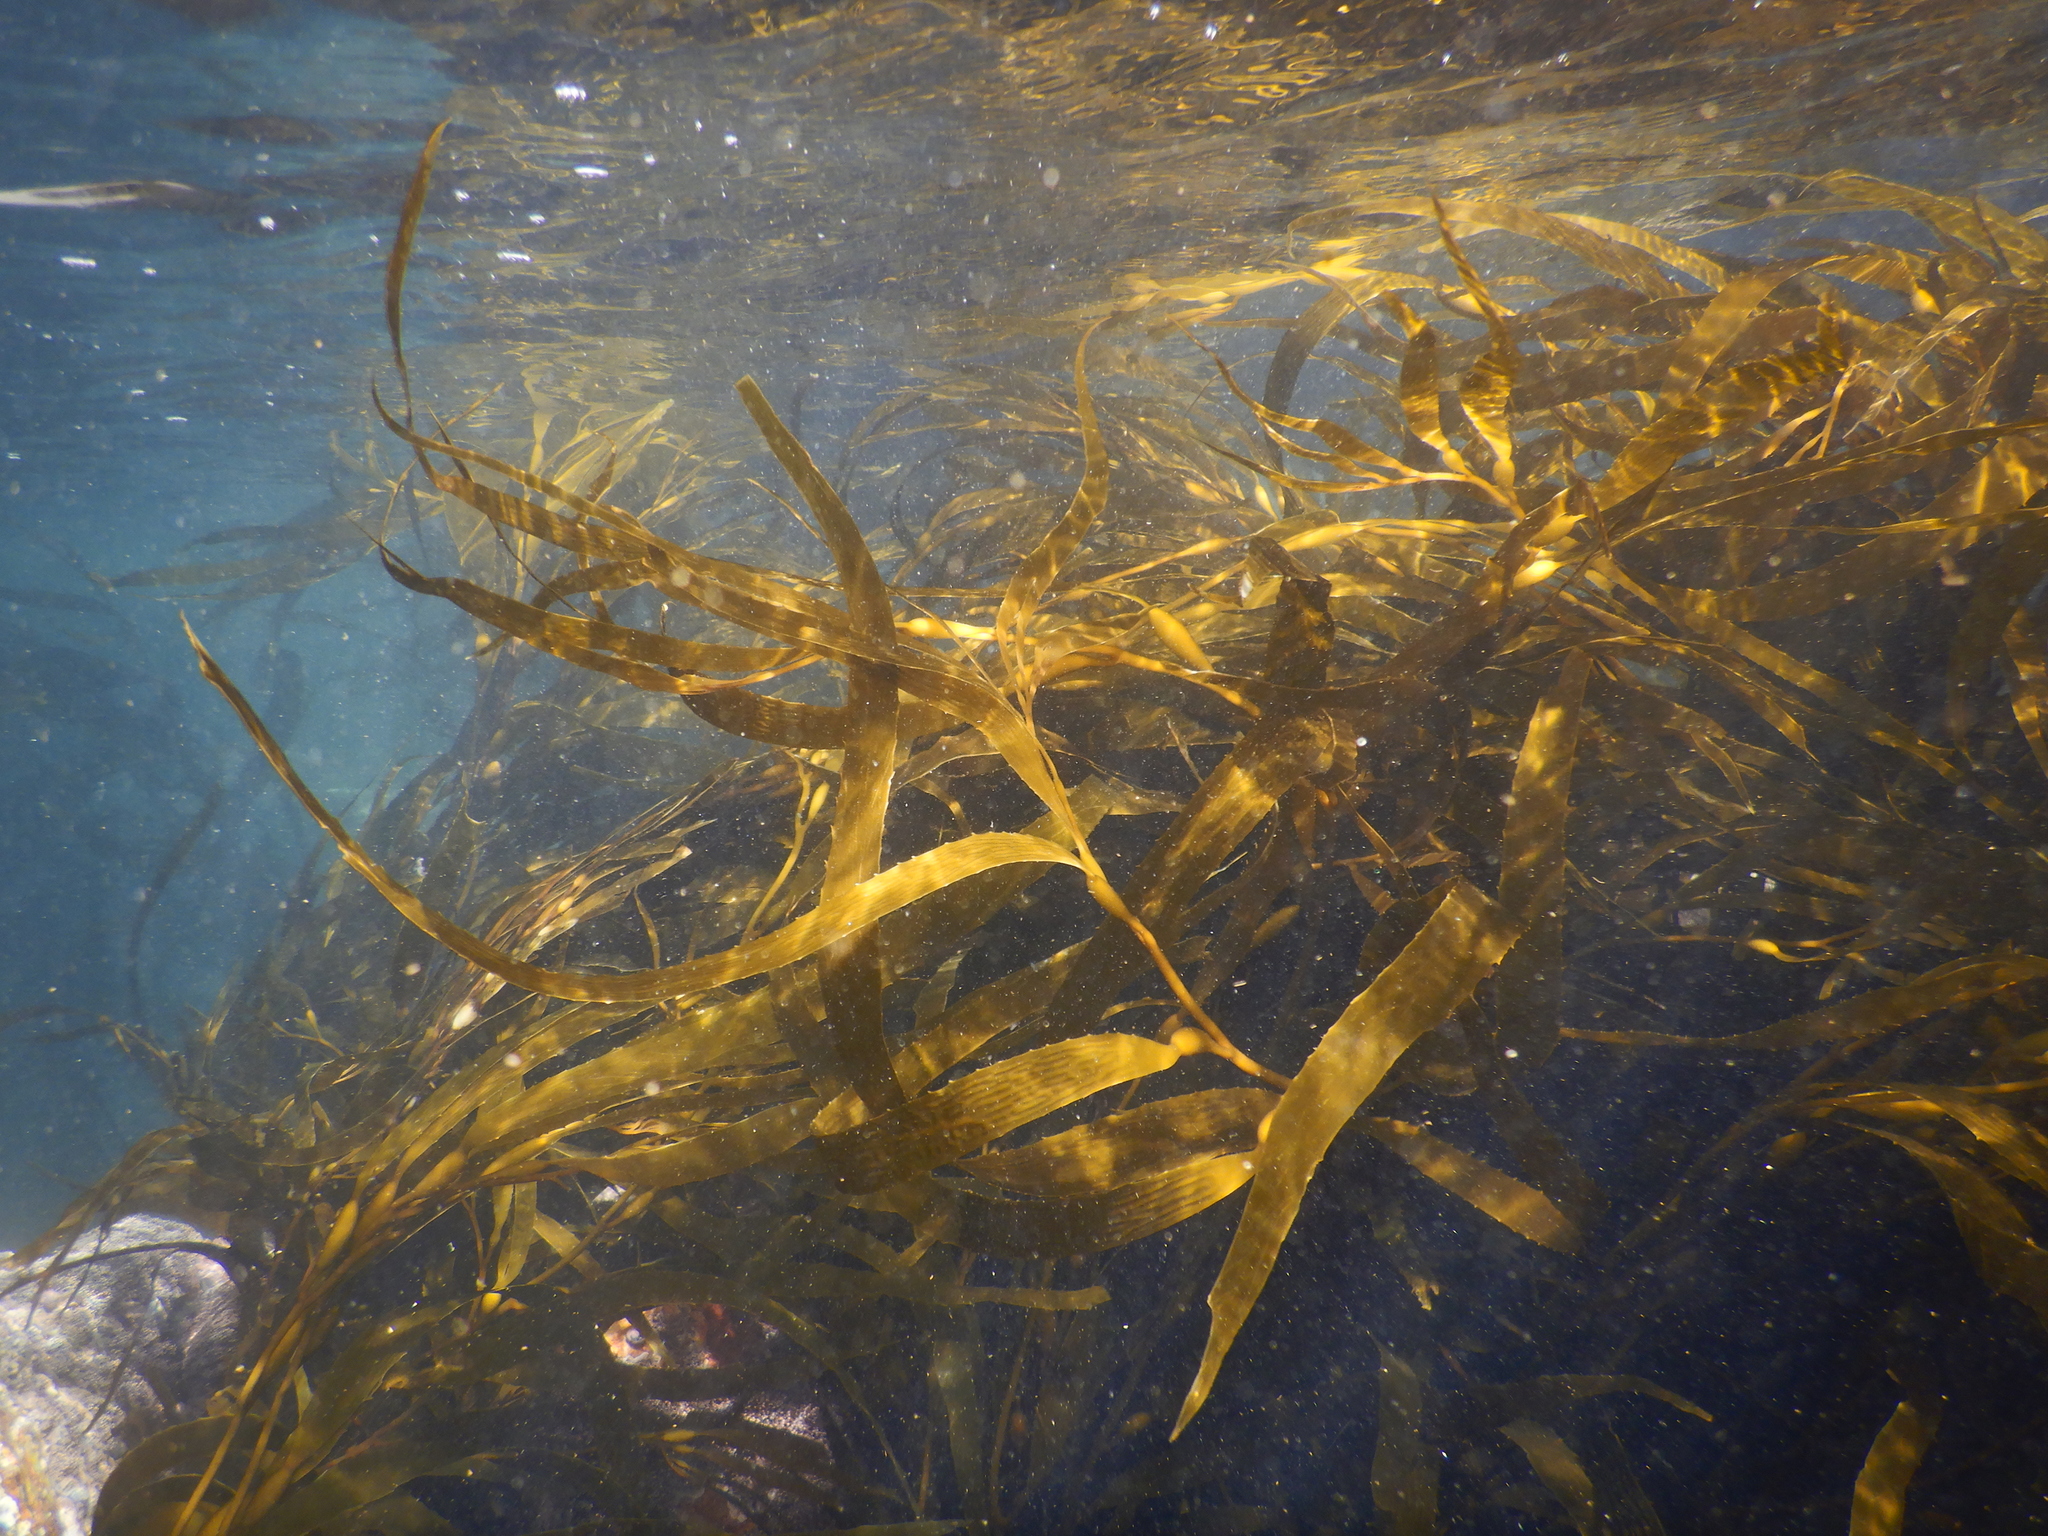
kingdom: Chromista
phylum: Ochrophyta
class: Phaeophyceae
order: Laminariales
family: Laminariaceae
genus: Macrocystis
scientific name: Macrocystis pyrifera
